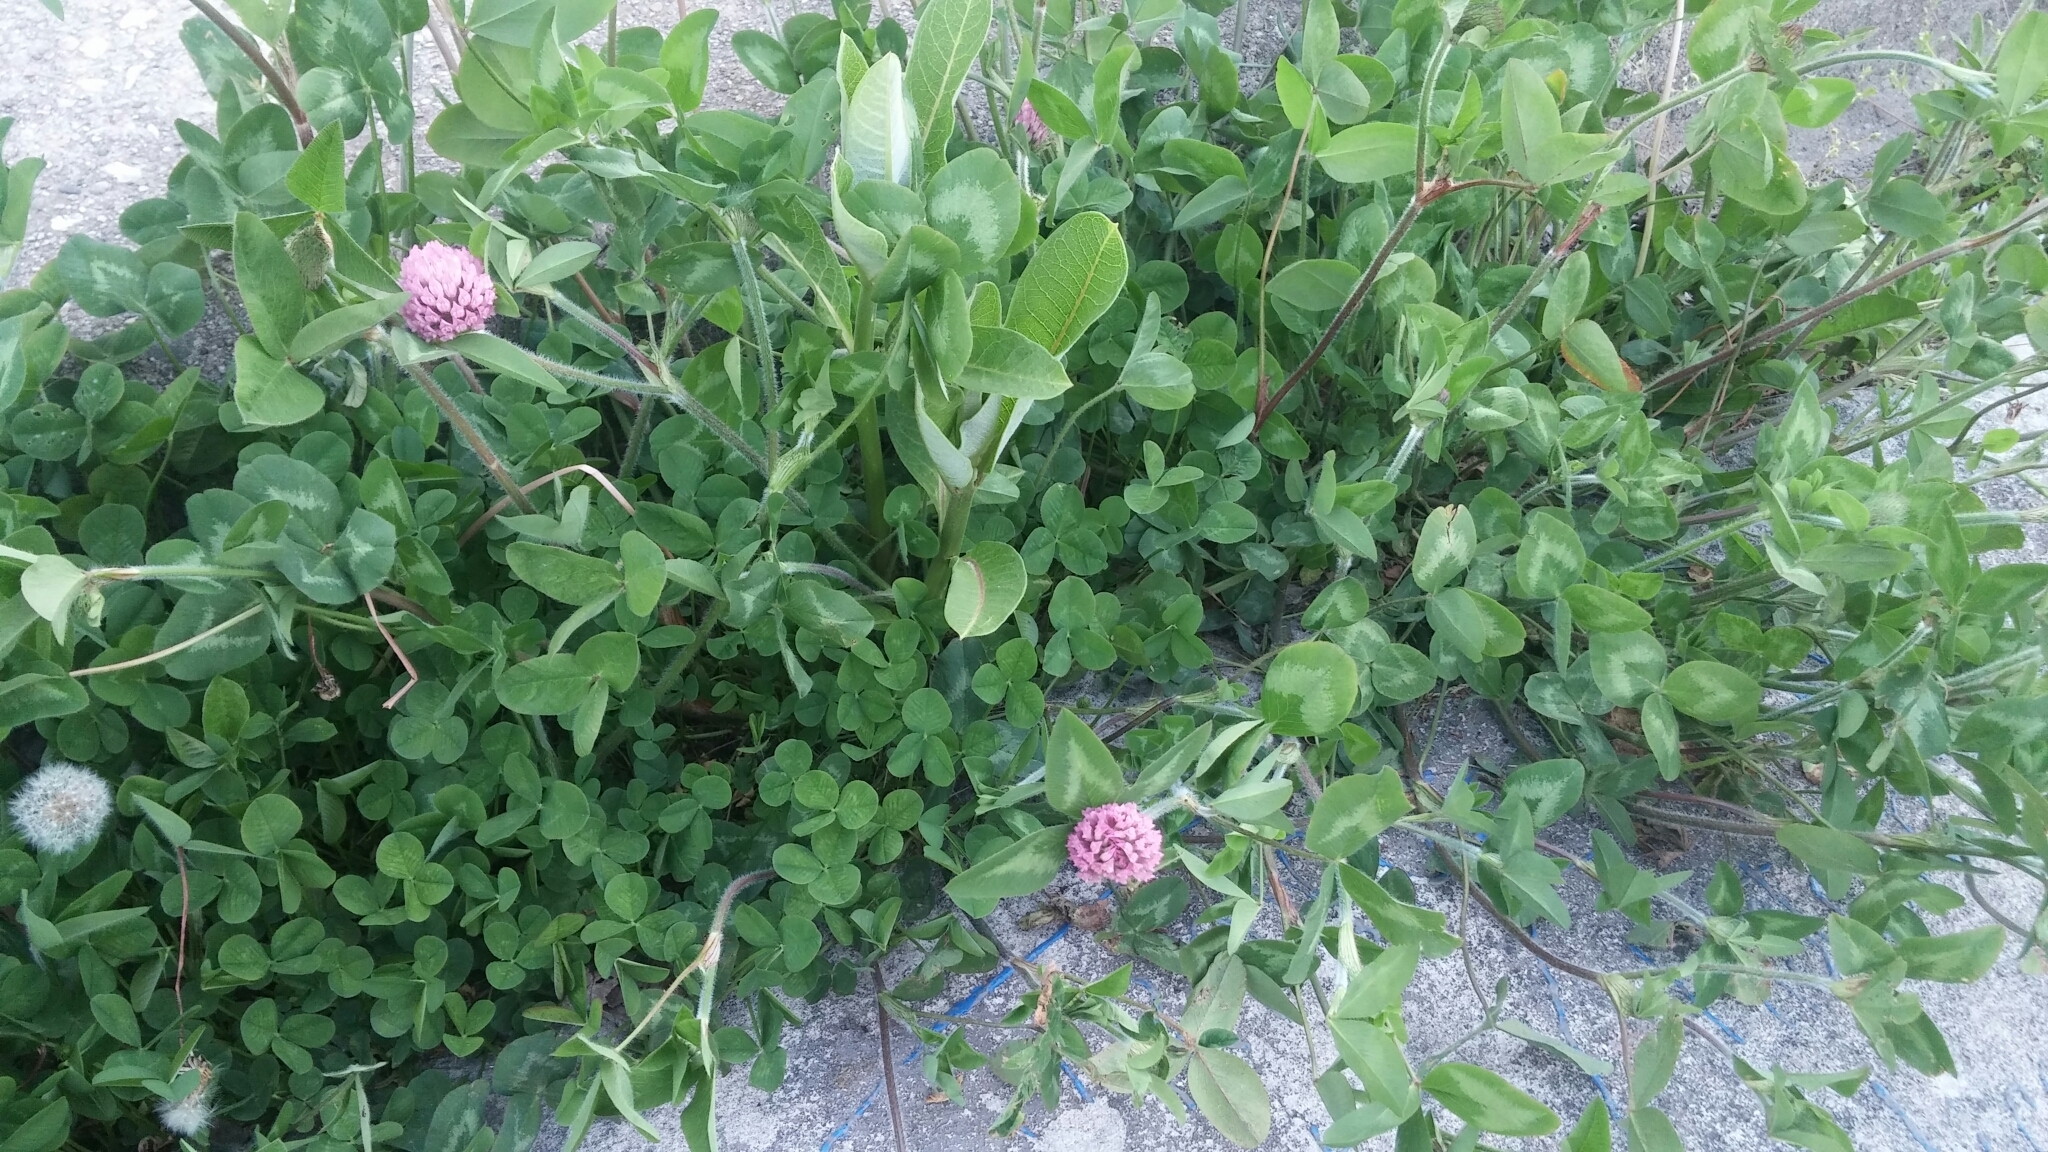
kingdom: Plantae
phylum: Tracheophyta
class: Magnoliopsida
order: Fabales
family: Fabaceae
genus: Trifolium
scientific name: Trifolium pratense
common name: Red clover
